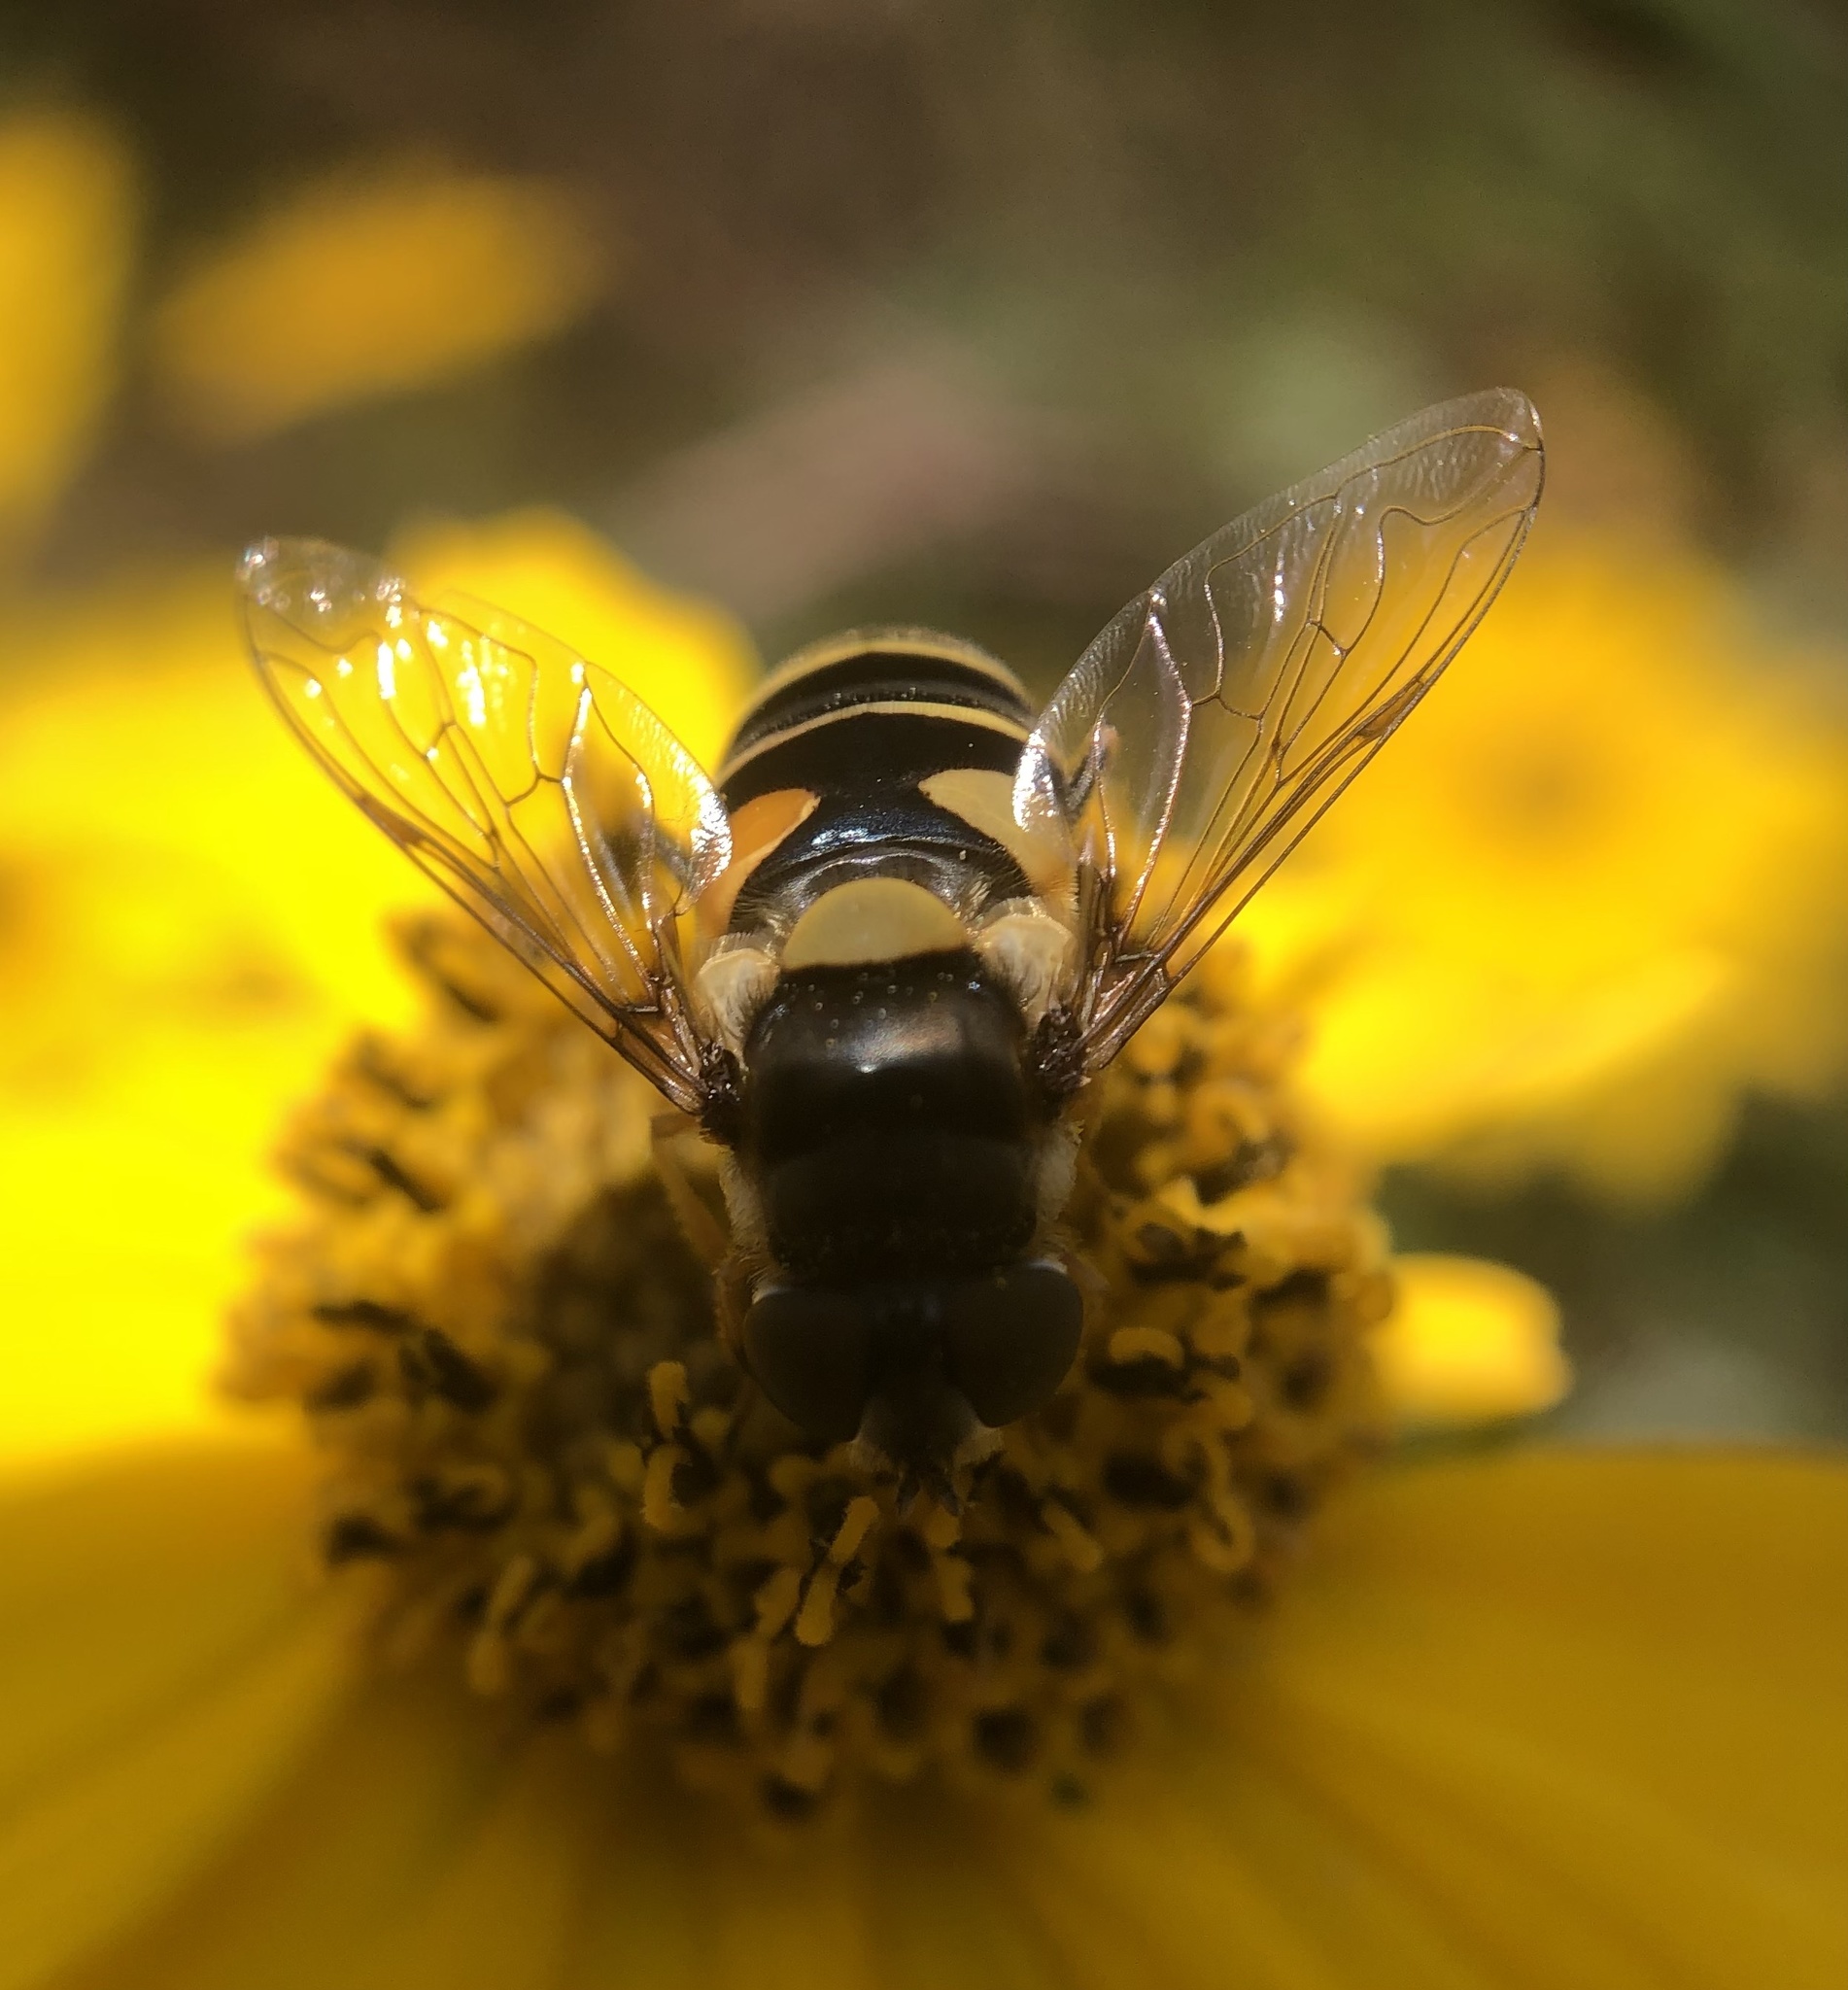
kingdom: Animalia
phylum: Arthropoda
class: Insecta
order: Diptera
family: Syrphidae
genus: Eristalis
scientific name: Eristalis transversa
